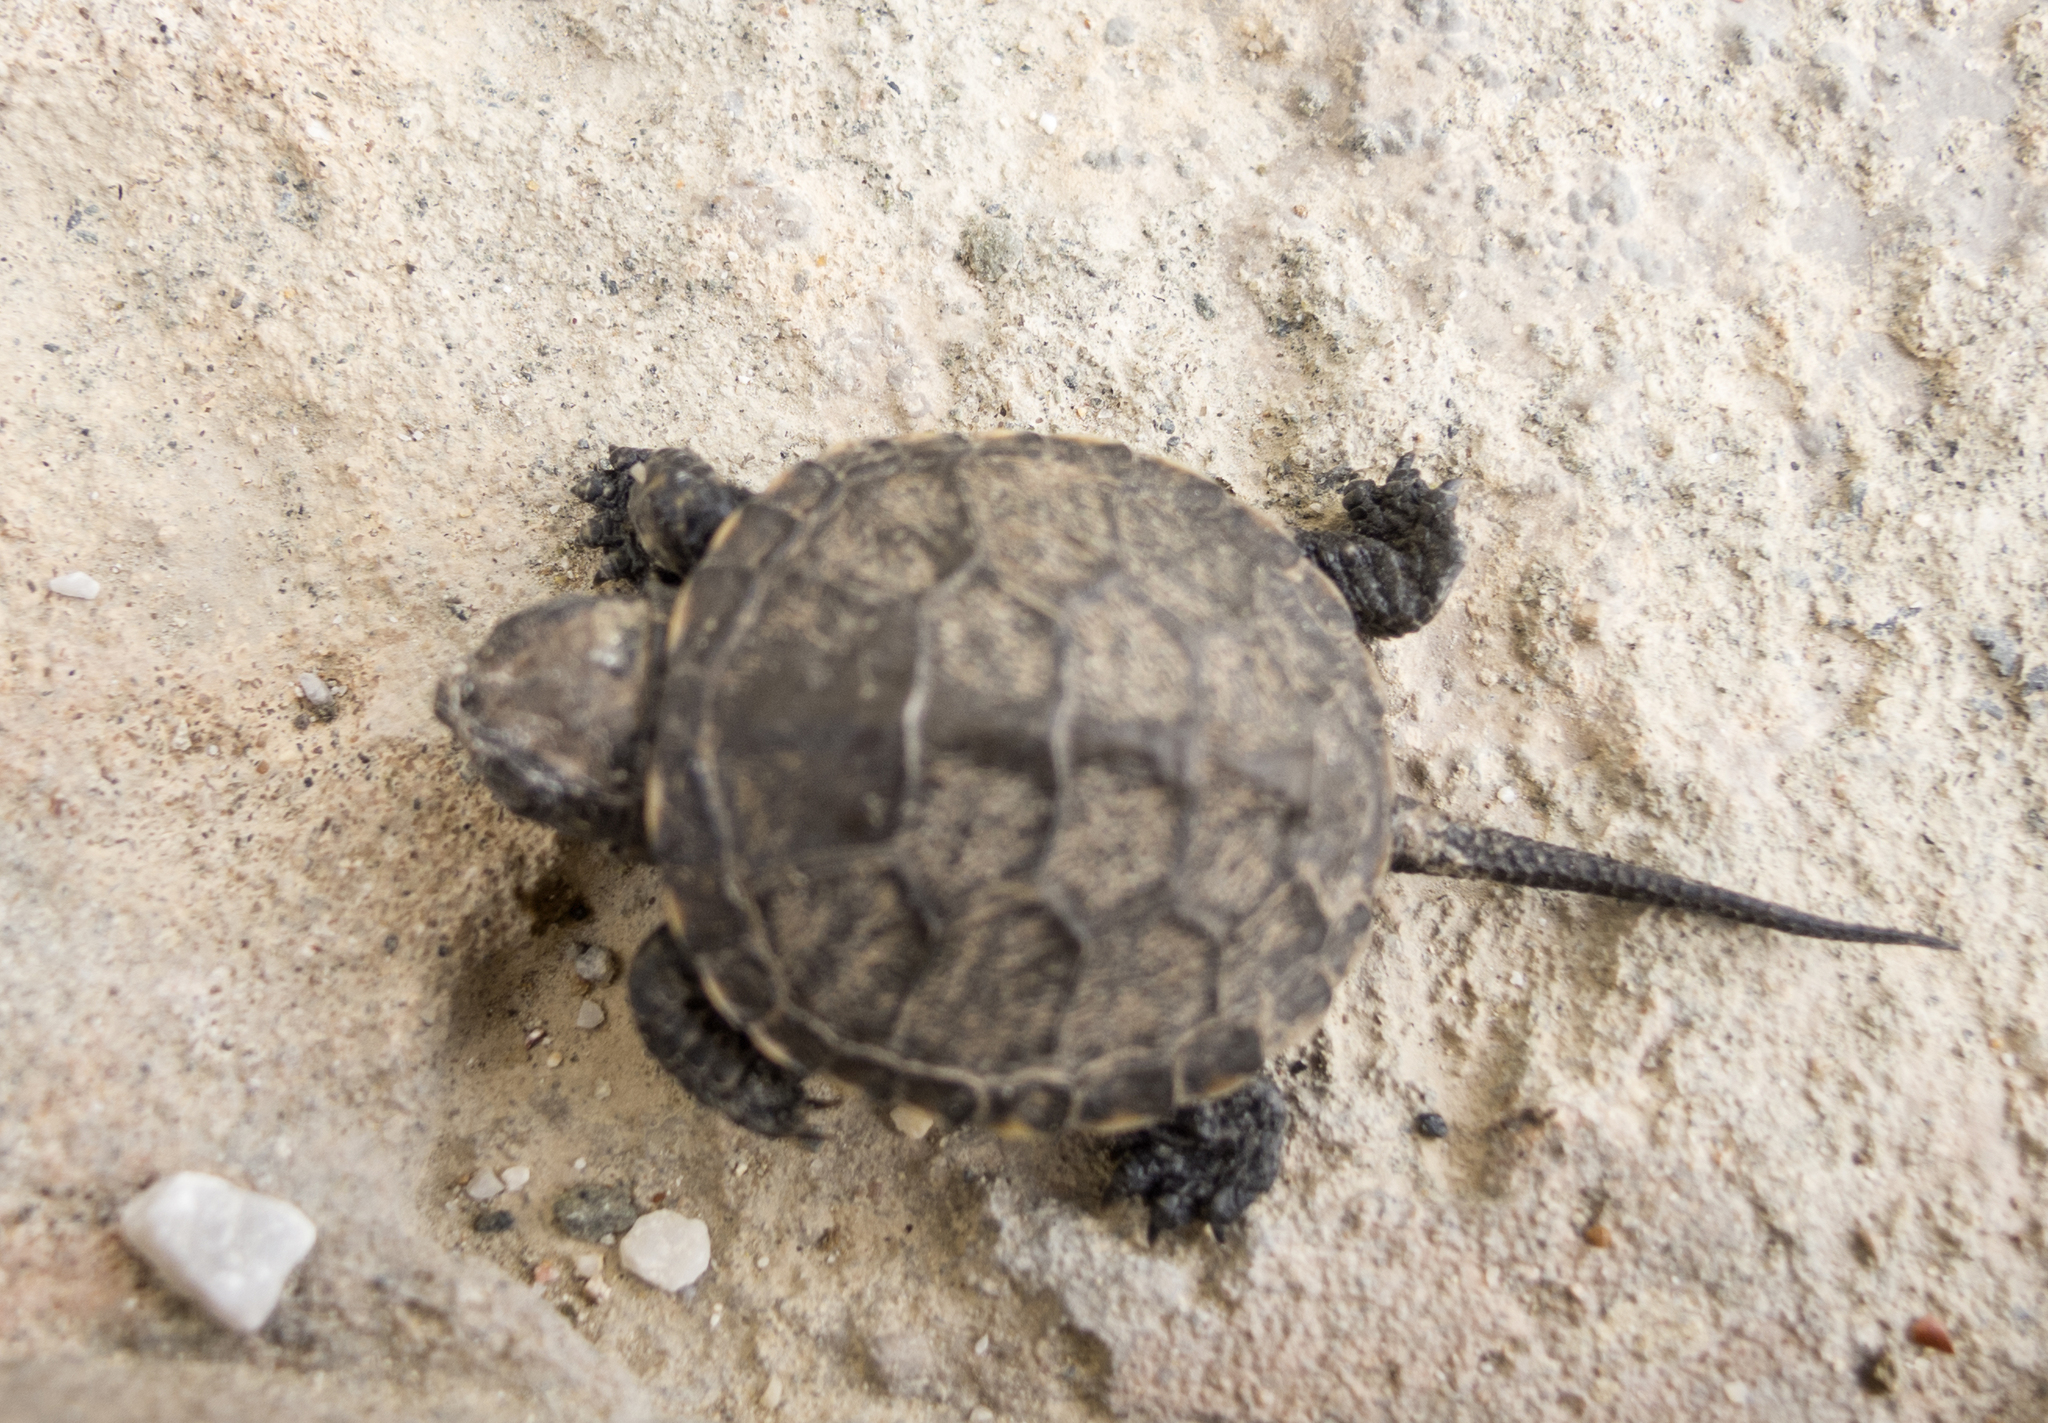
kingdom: Animalia
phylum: Chordata
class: Testudines
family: Emydidae
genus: Emys
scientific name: Emys orbicularis
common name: European pond turtle
